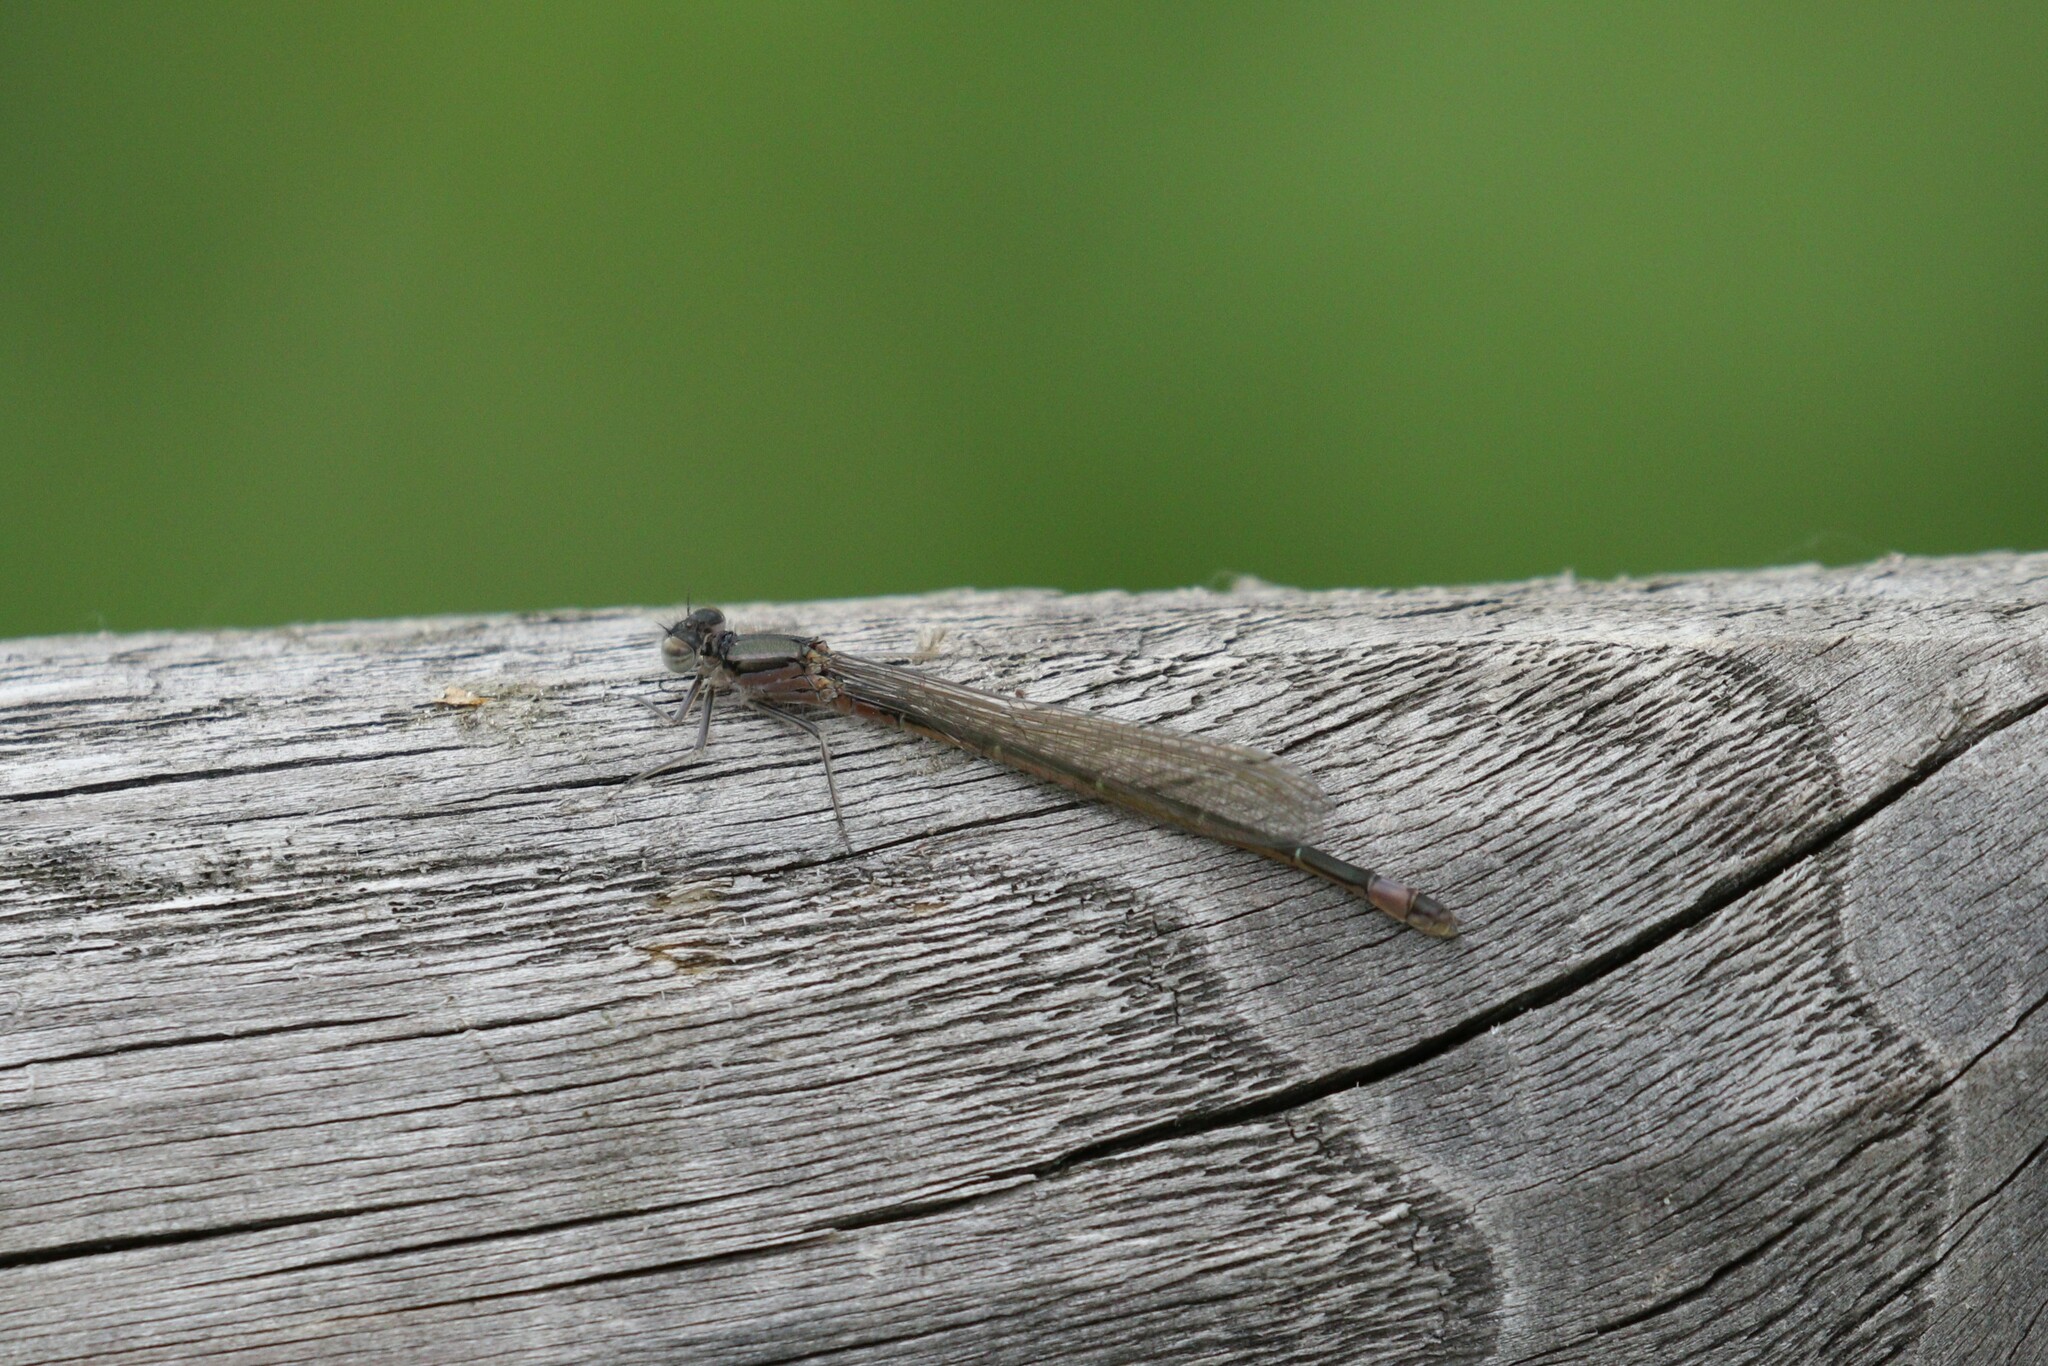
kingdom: Animalia
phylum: Arthropoda
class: Insecta
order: Odonata
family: Coenagrionidae
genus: Ischnura
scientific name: Ischnura elegans
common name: Blue-tailed damselfly
